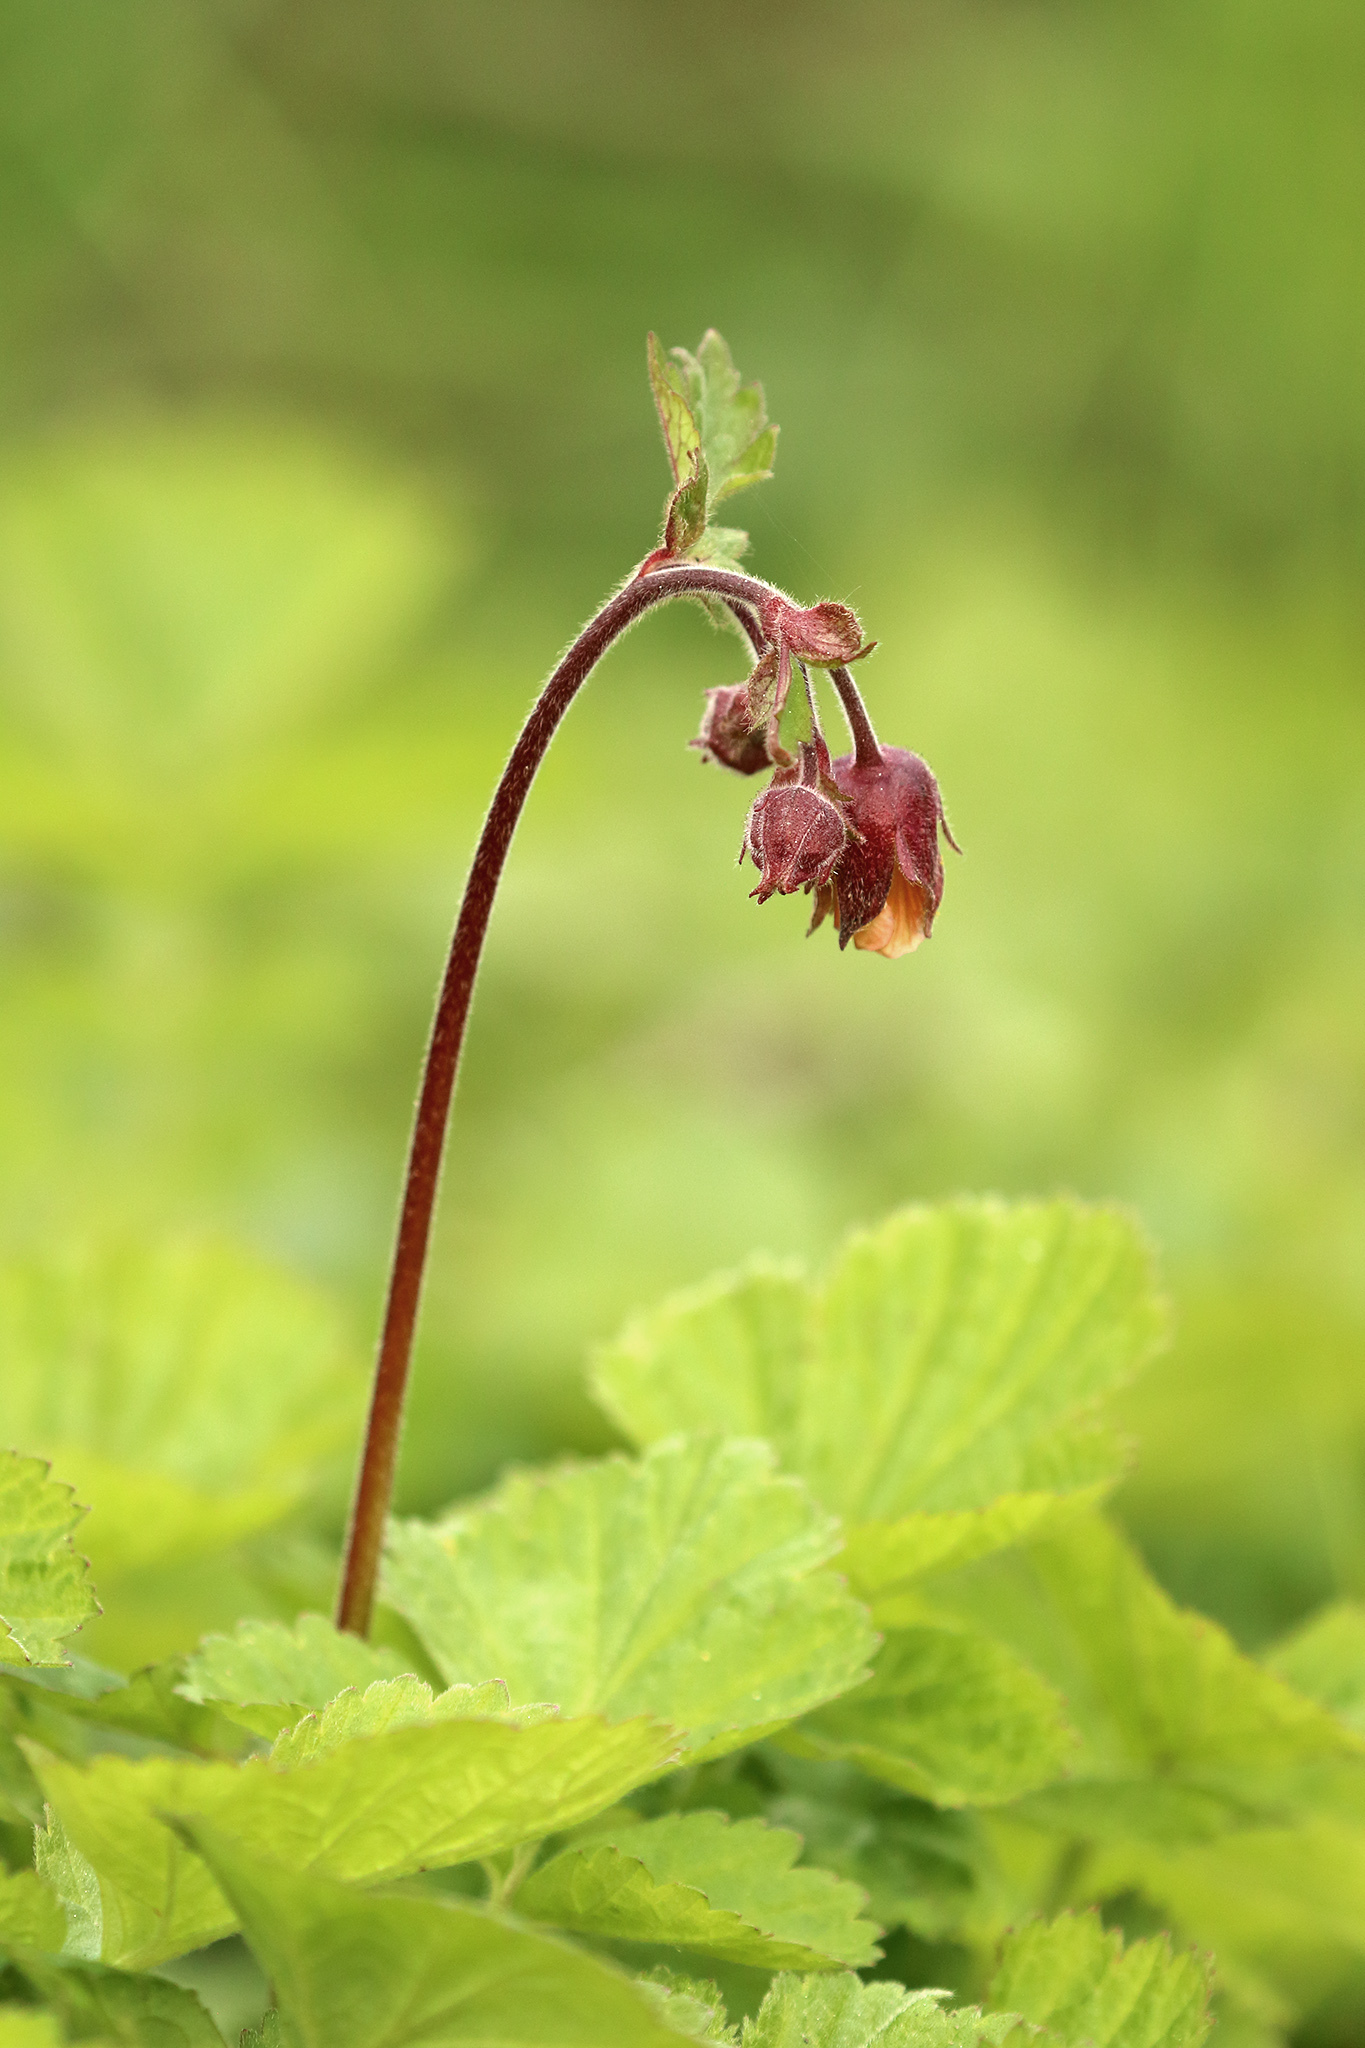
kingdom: Plantae
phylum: Tracheophyta
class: Magnoliopsida
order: Rosales
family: Rosaceae
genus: Geum
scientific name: Geum rivale
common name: Water avens
